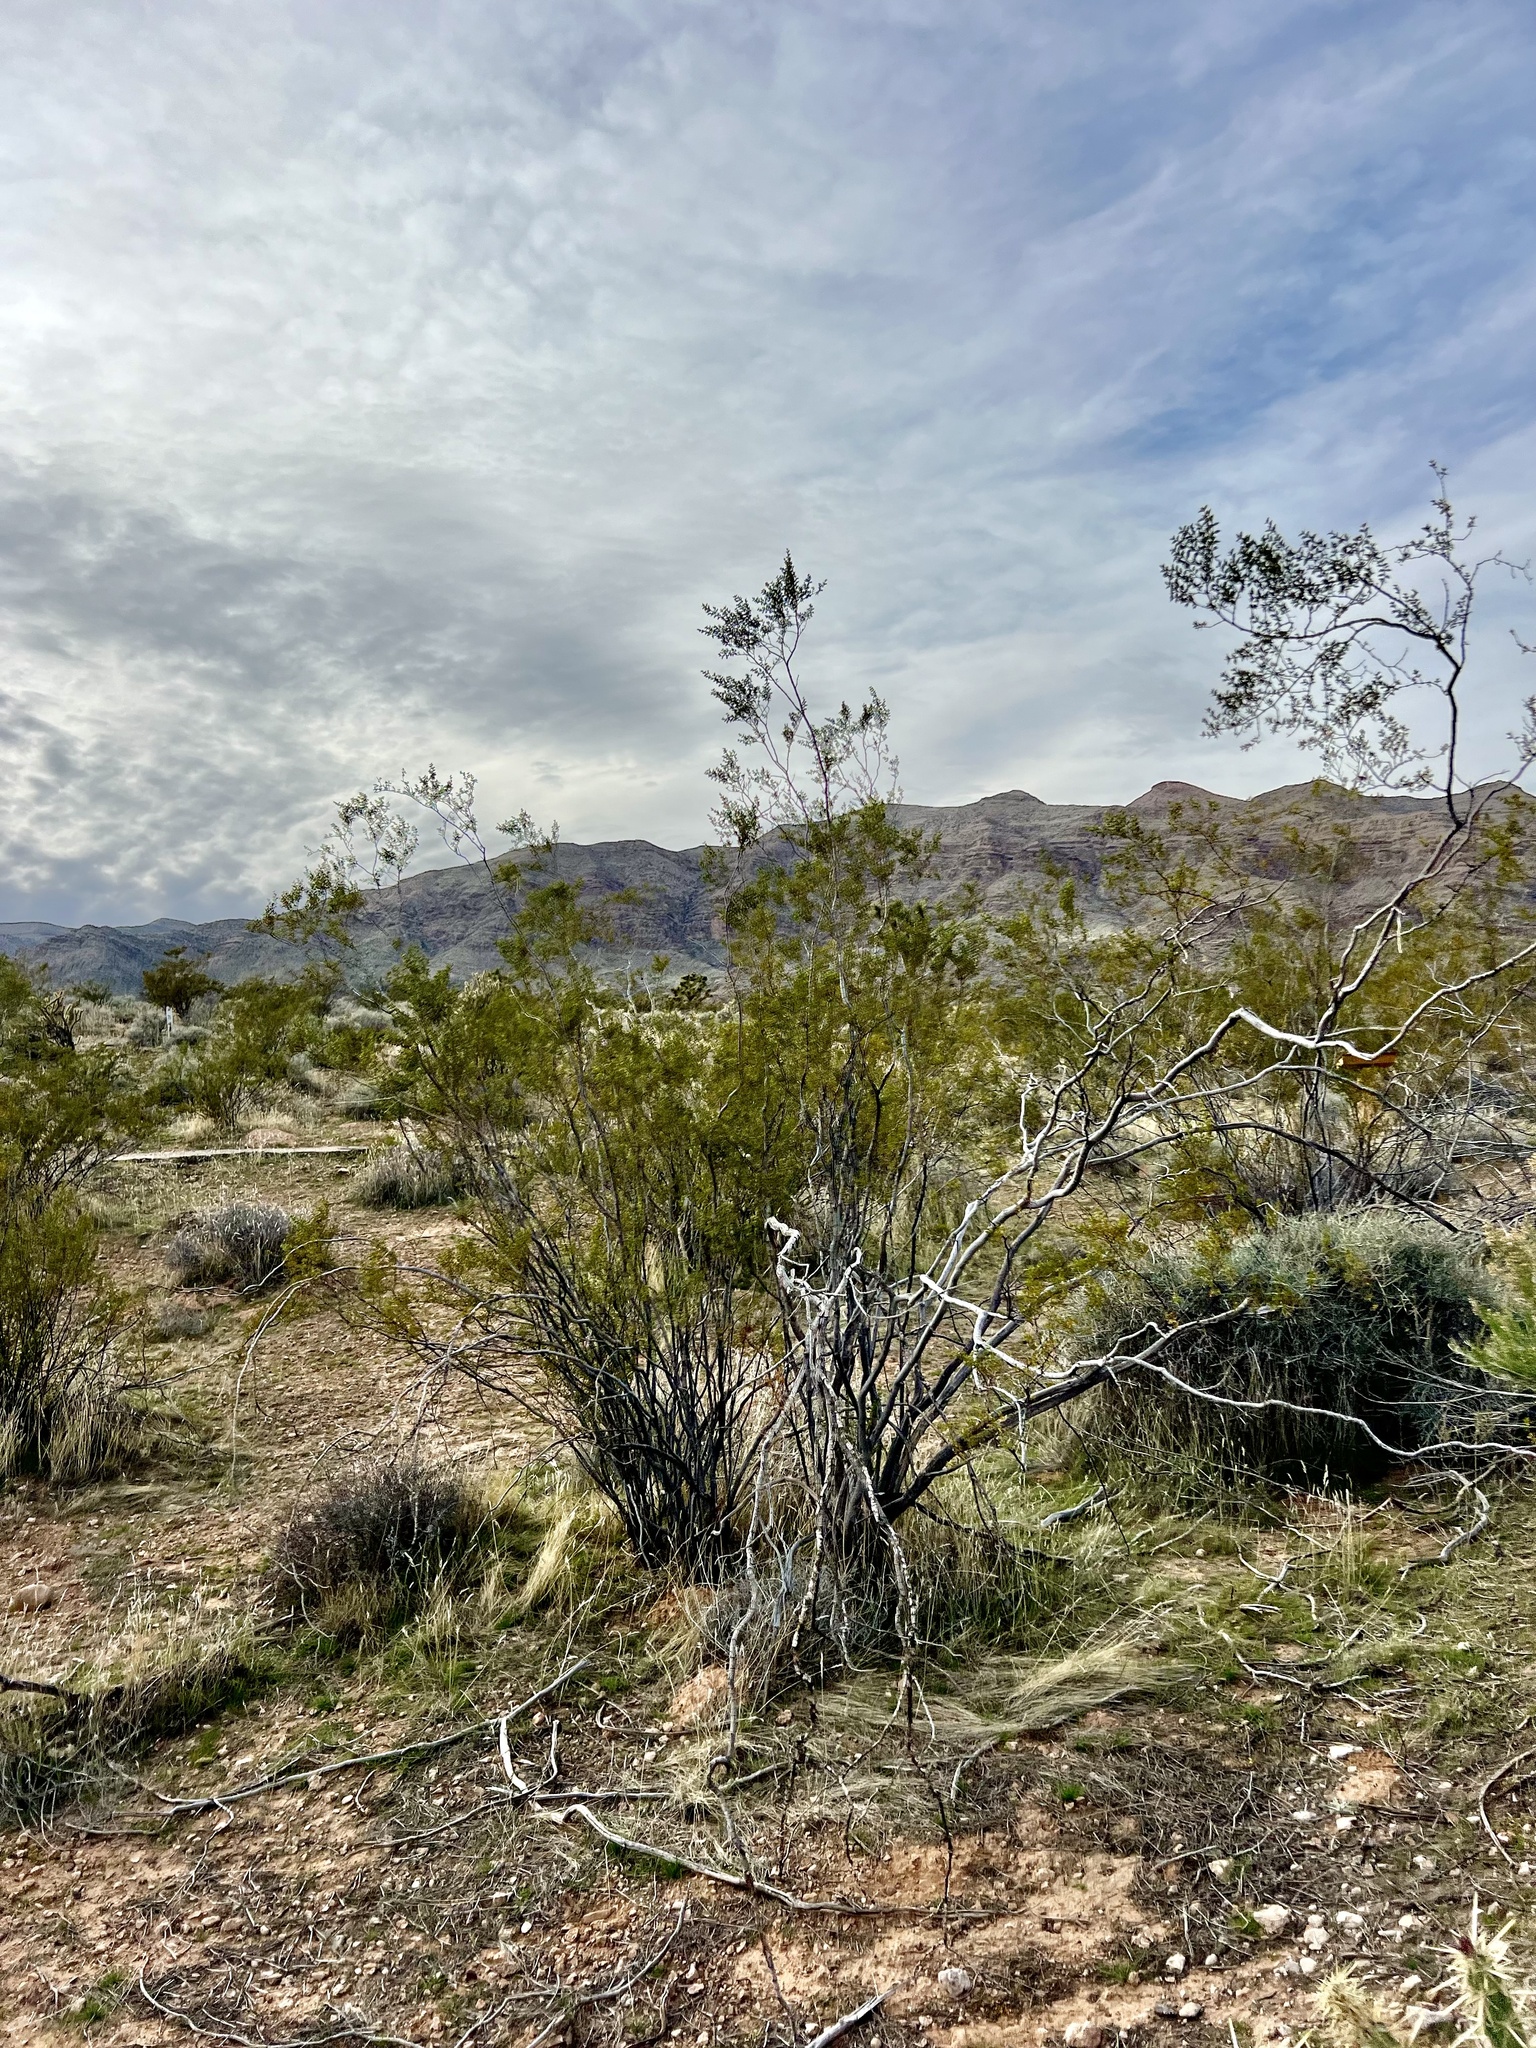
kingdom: Plantae
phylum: Tracheophyta
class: Magnoliopsida
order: Zygophyllales
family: Zygophyllaceae
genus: Larrea
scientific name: Larrea tridentata
